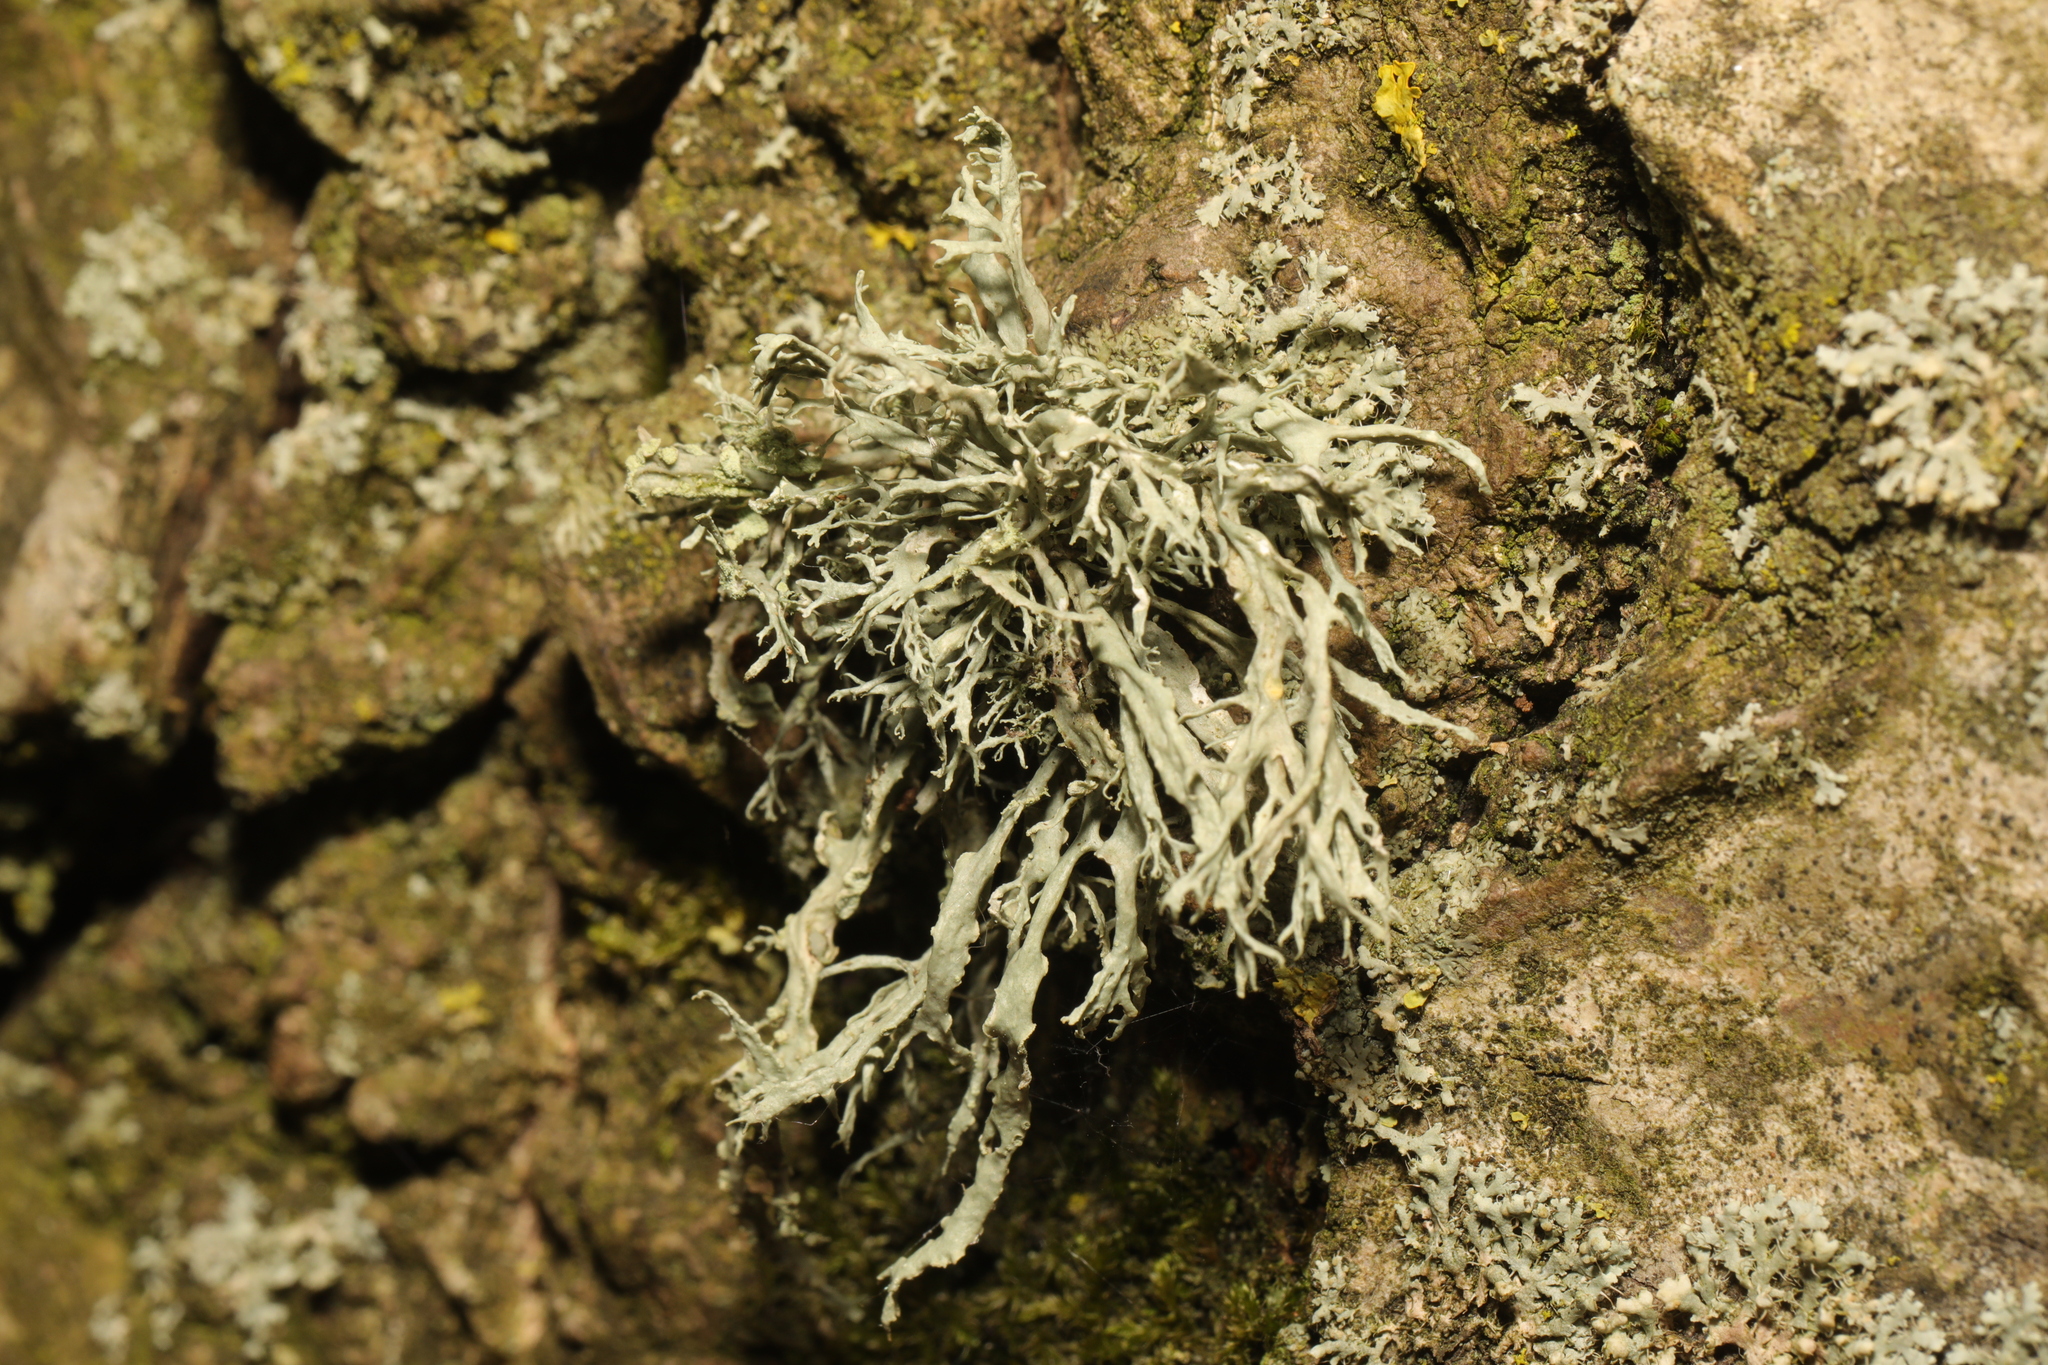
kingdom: Fungi
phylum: Ascomycota
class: Lecanoromycetes
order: Lecanorales
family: Ramalinaceae
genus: Ramalina
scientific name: Ramalina farinacea
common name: Farinose cartilage lichen
